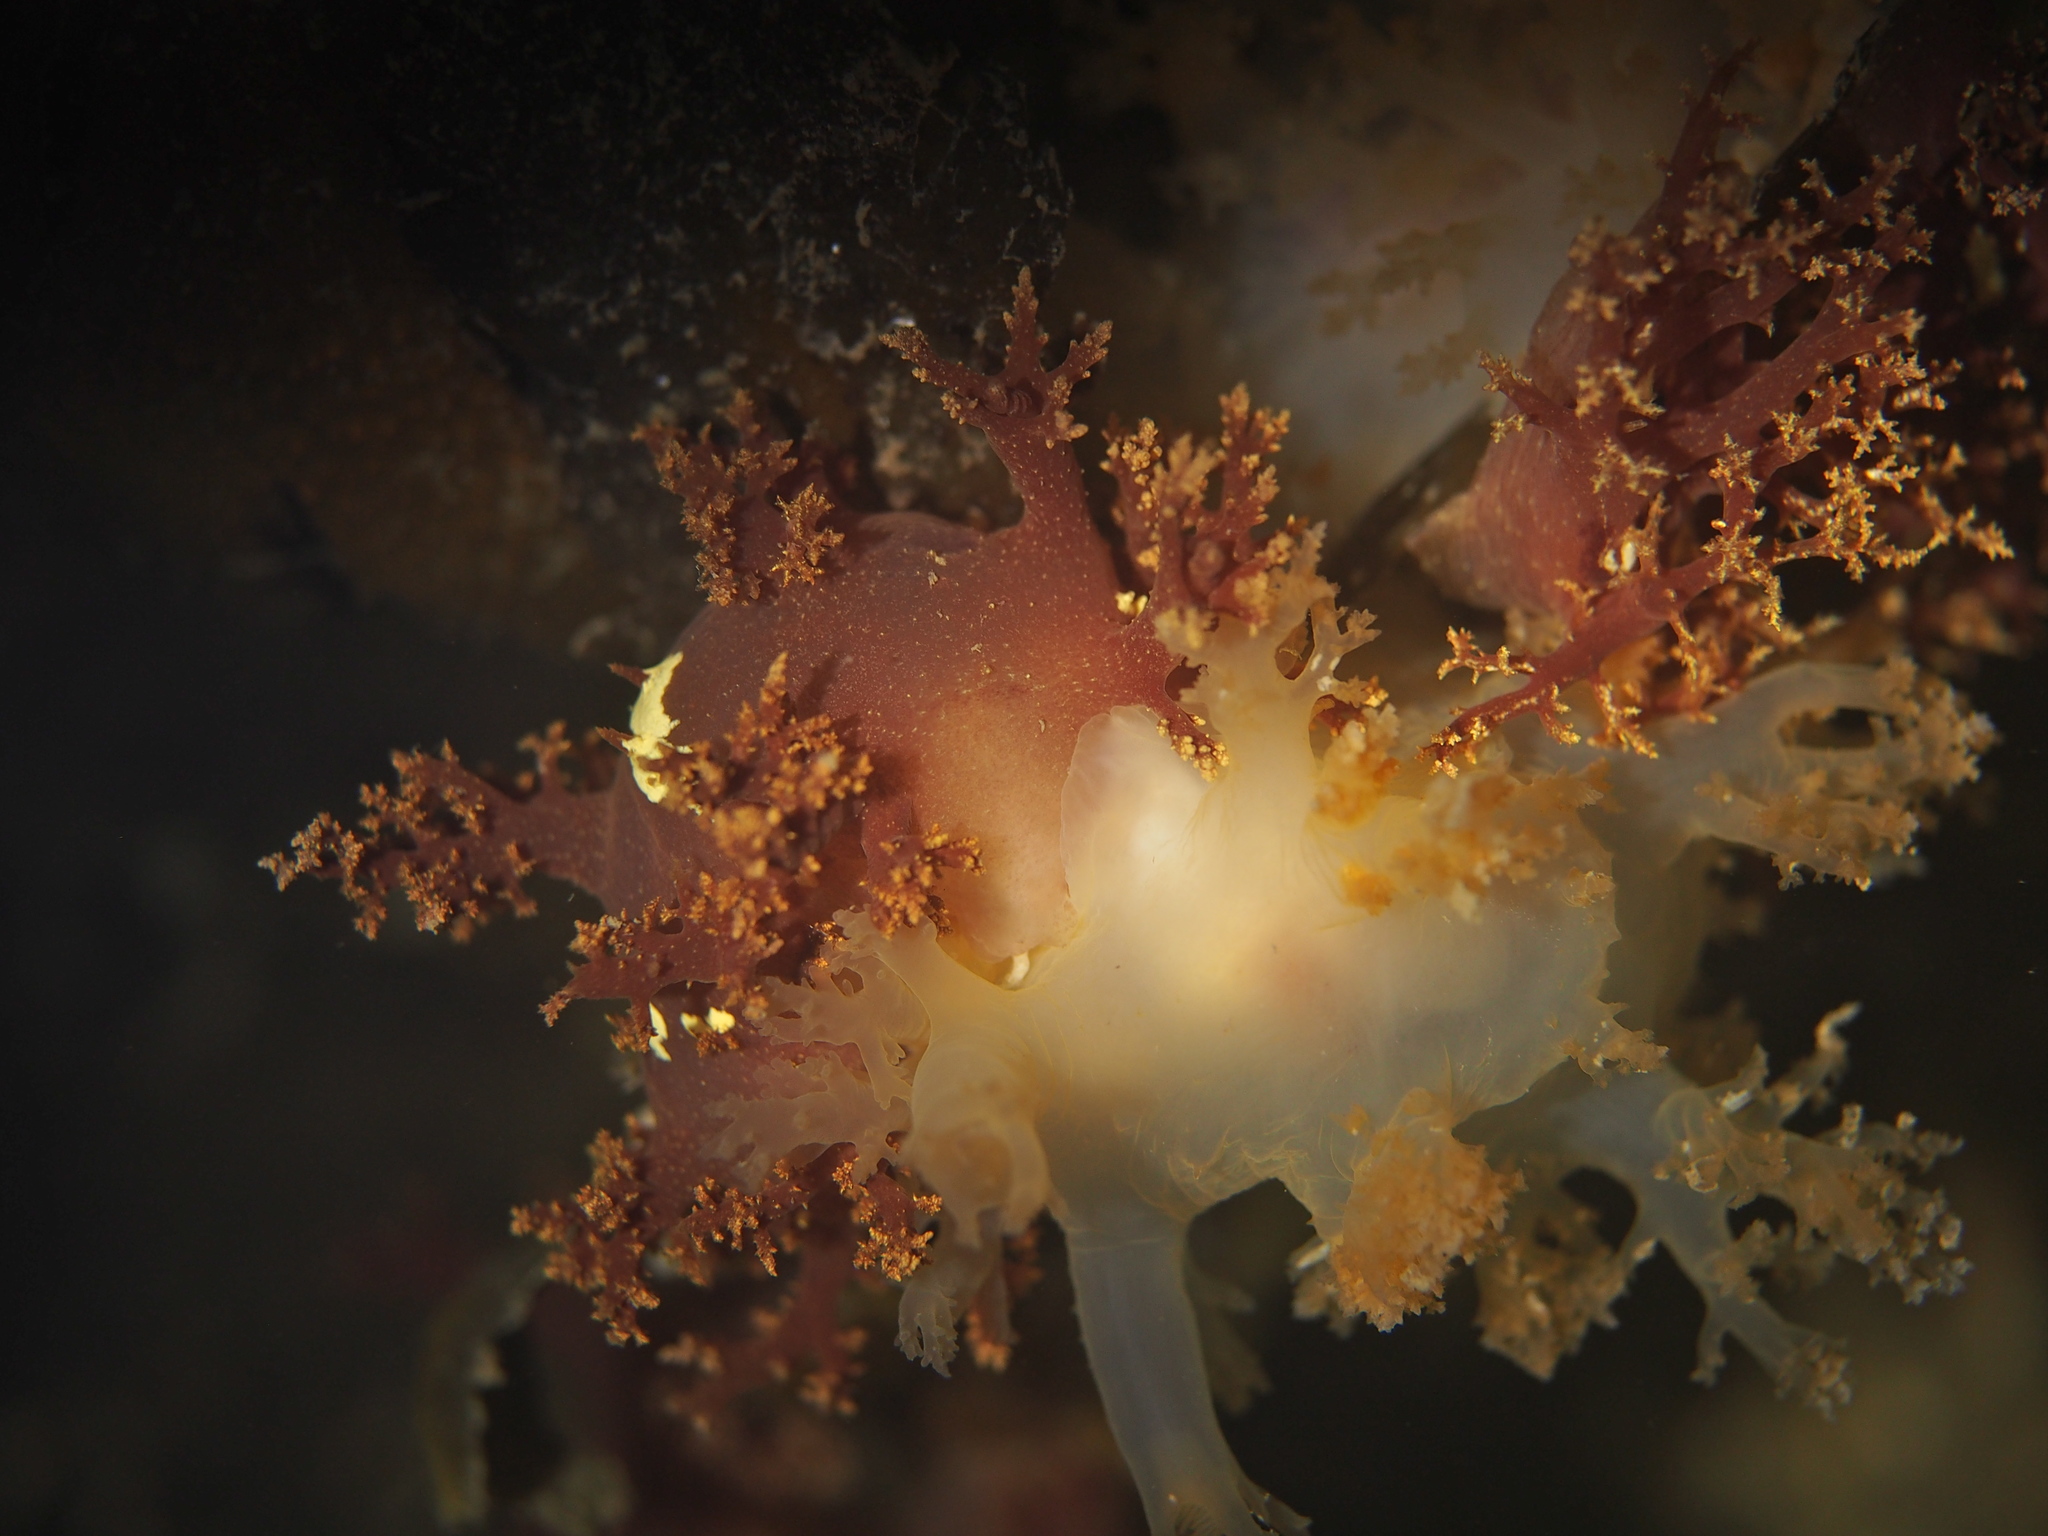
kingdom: Animalia
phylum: Mollusca
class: Gastropoda
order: Nudibranchia
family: Dendronotidae
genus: Dendronotus
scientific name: Dendronotus lacteus
